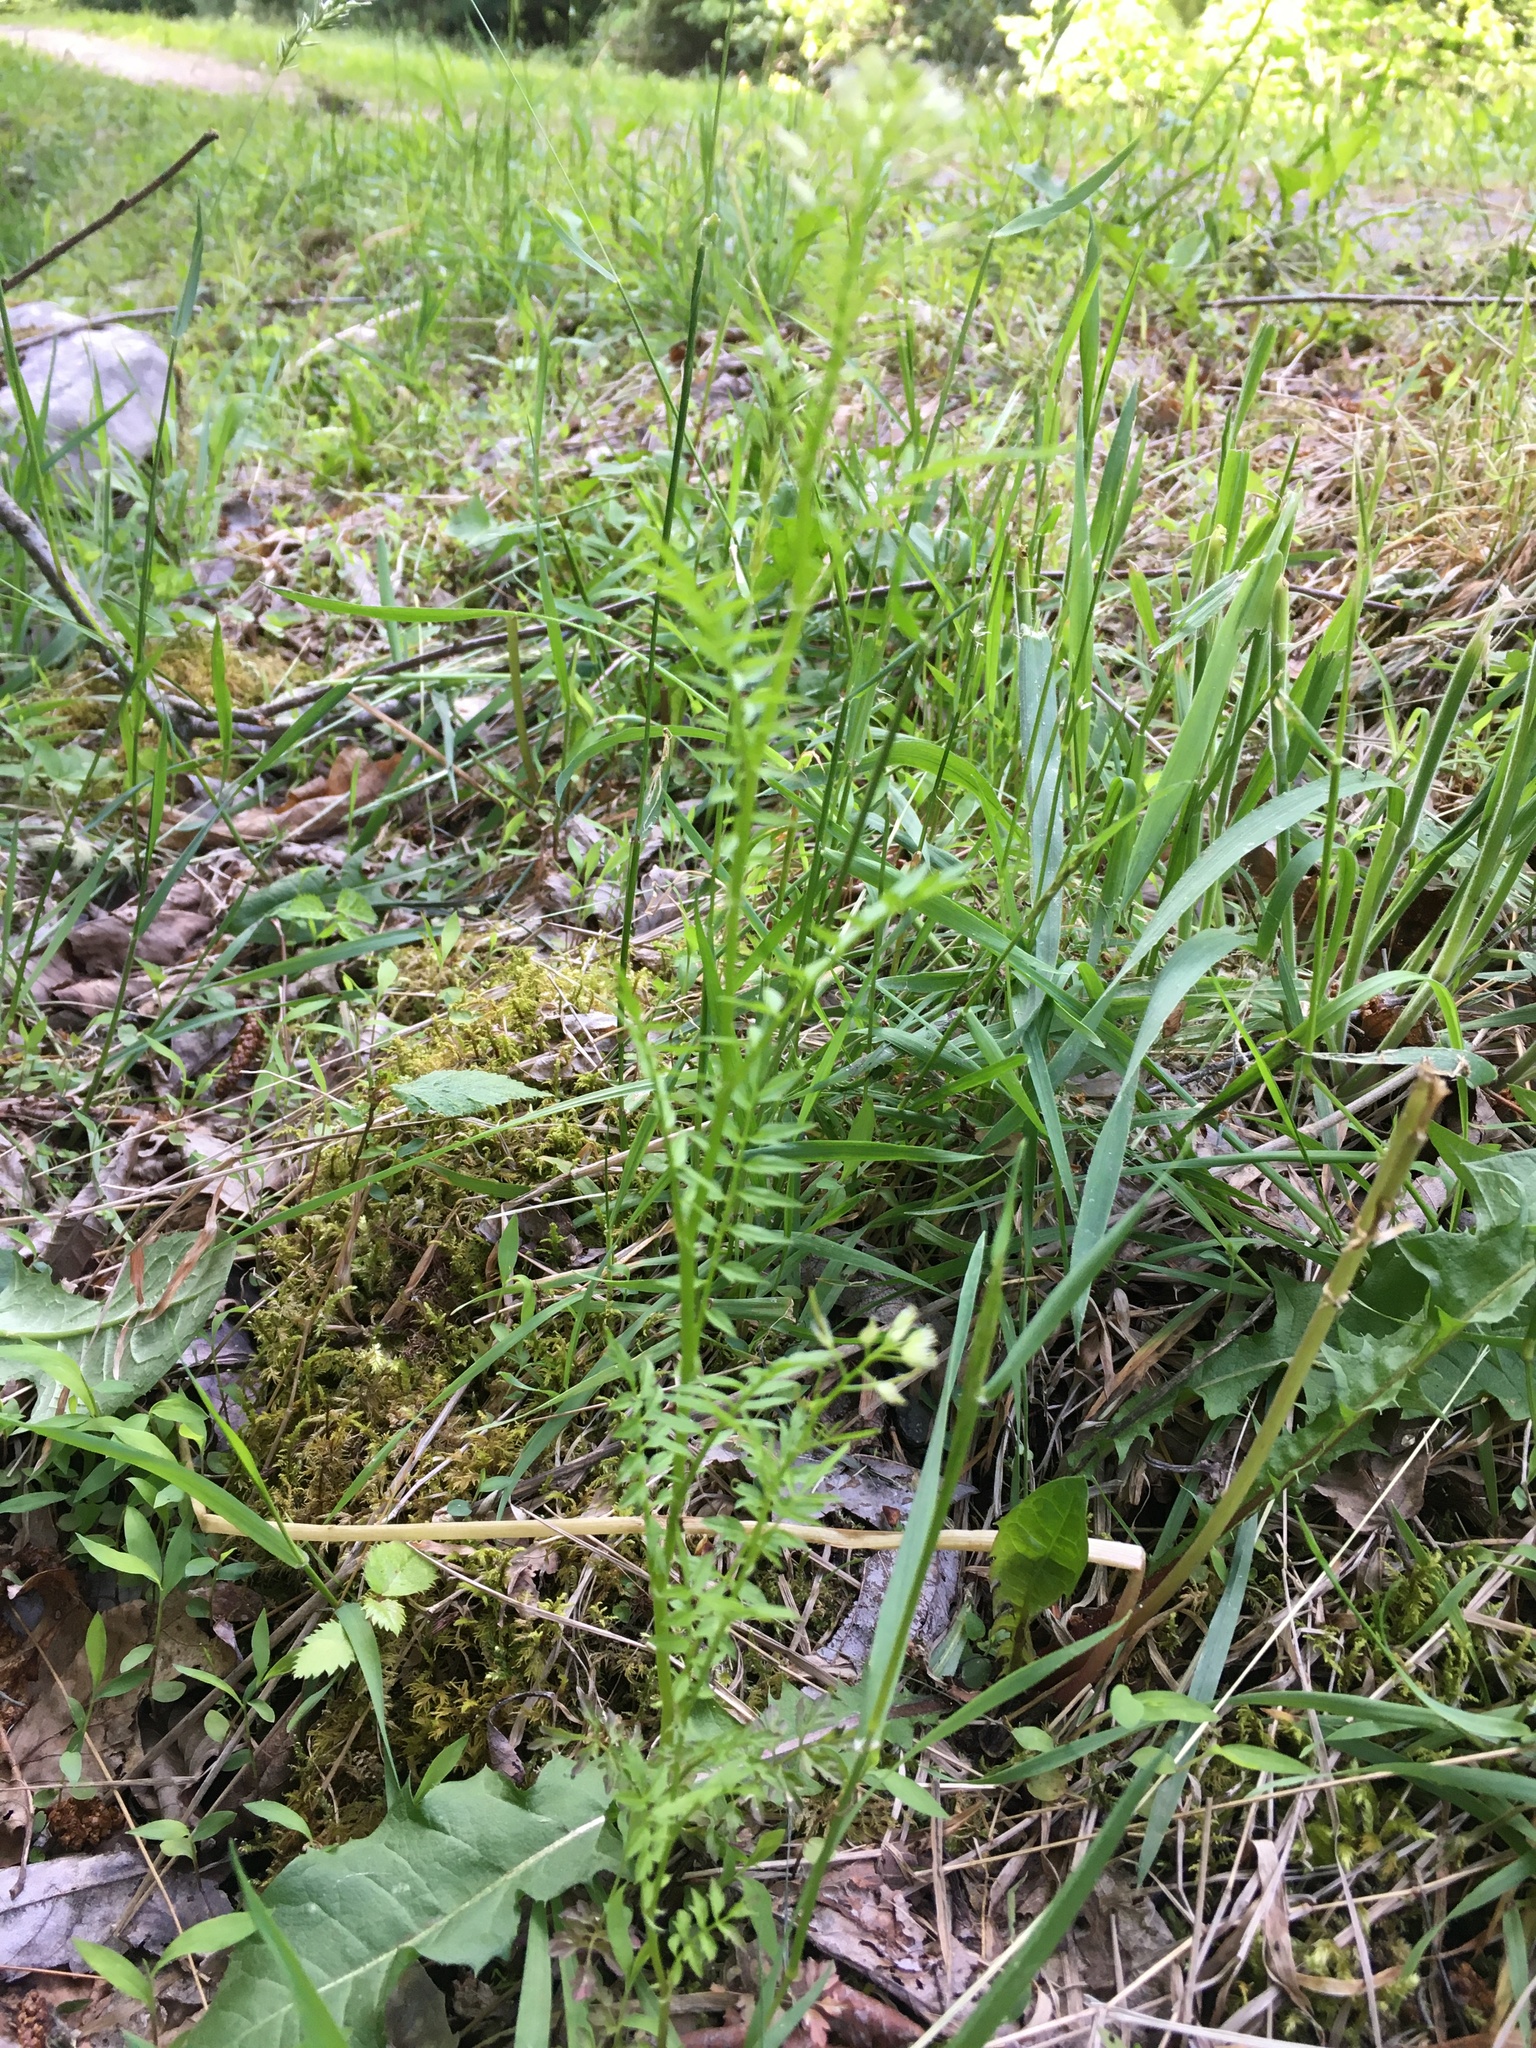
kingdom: Plantae
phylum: Tracheophyta
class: Magnoliopsida
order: Brassicales
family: Brassicaceae
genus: Cardamine
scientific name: Cardamine impatiens
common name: Narrow-leaved bitter-cress
